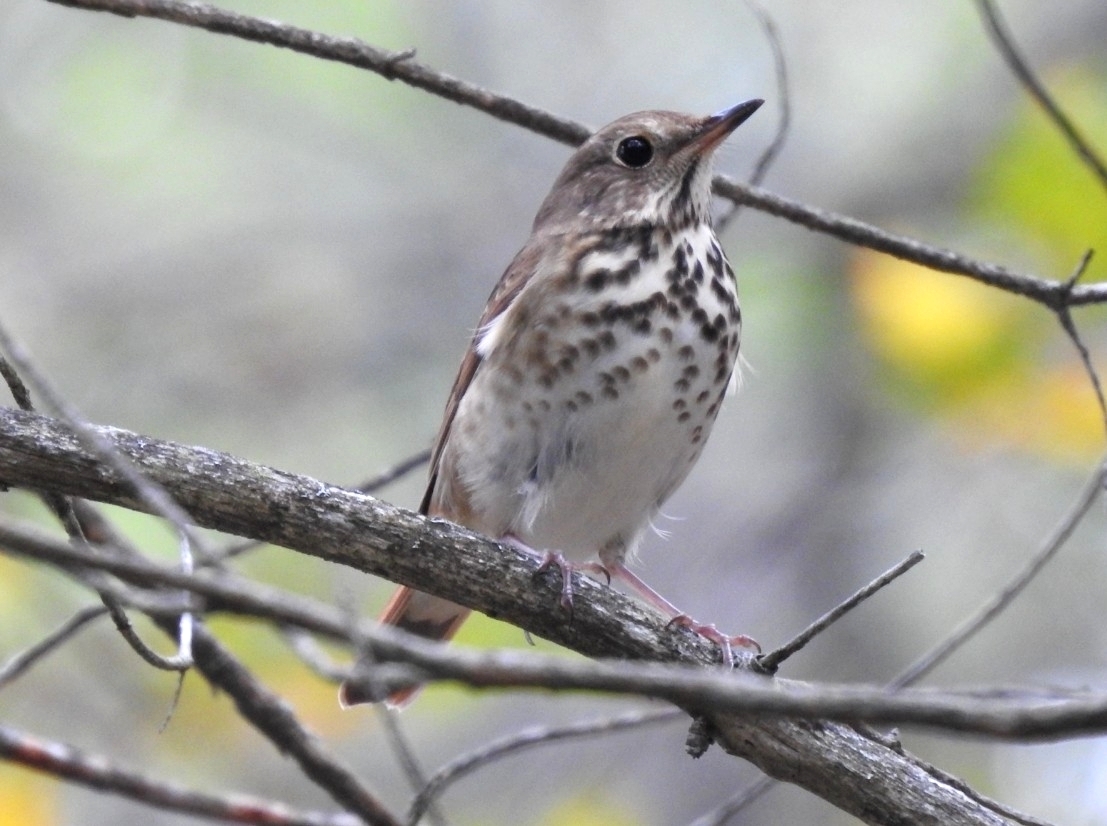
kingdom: Animalia
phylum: Chordata
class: Aves
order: Passeriformes
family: Turdidae
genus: Catharus
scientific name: Catharus guttatus
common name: Hermit thrush
